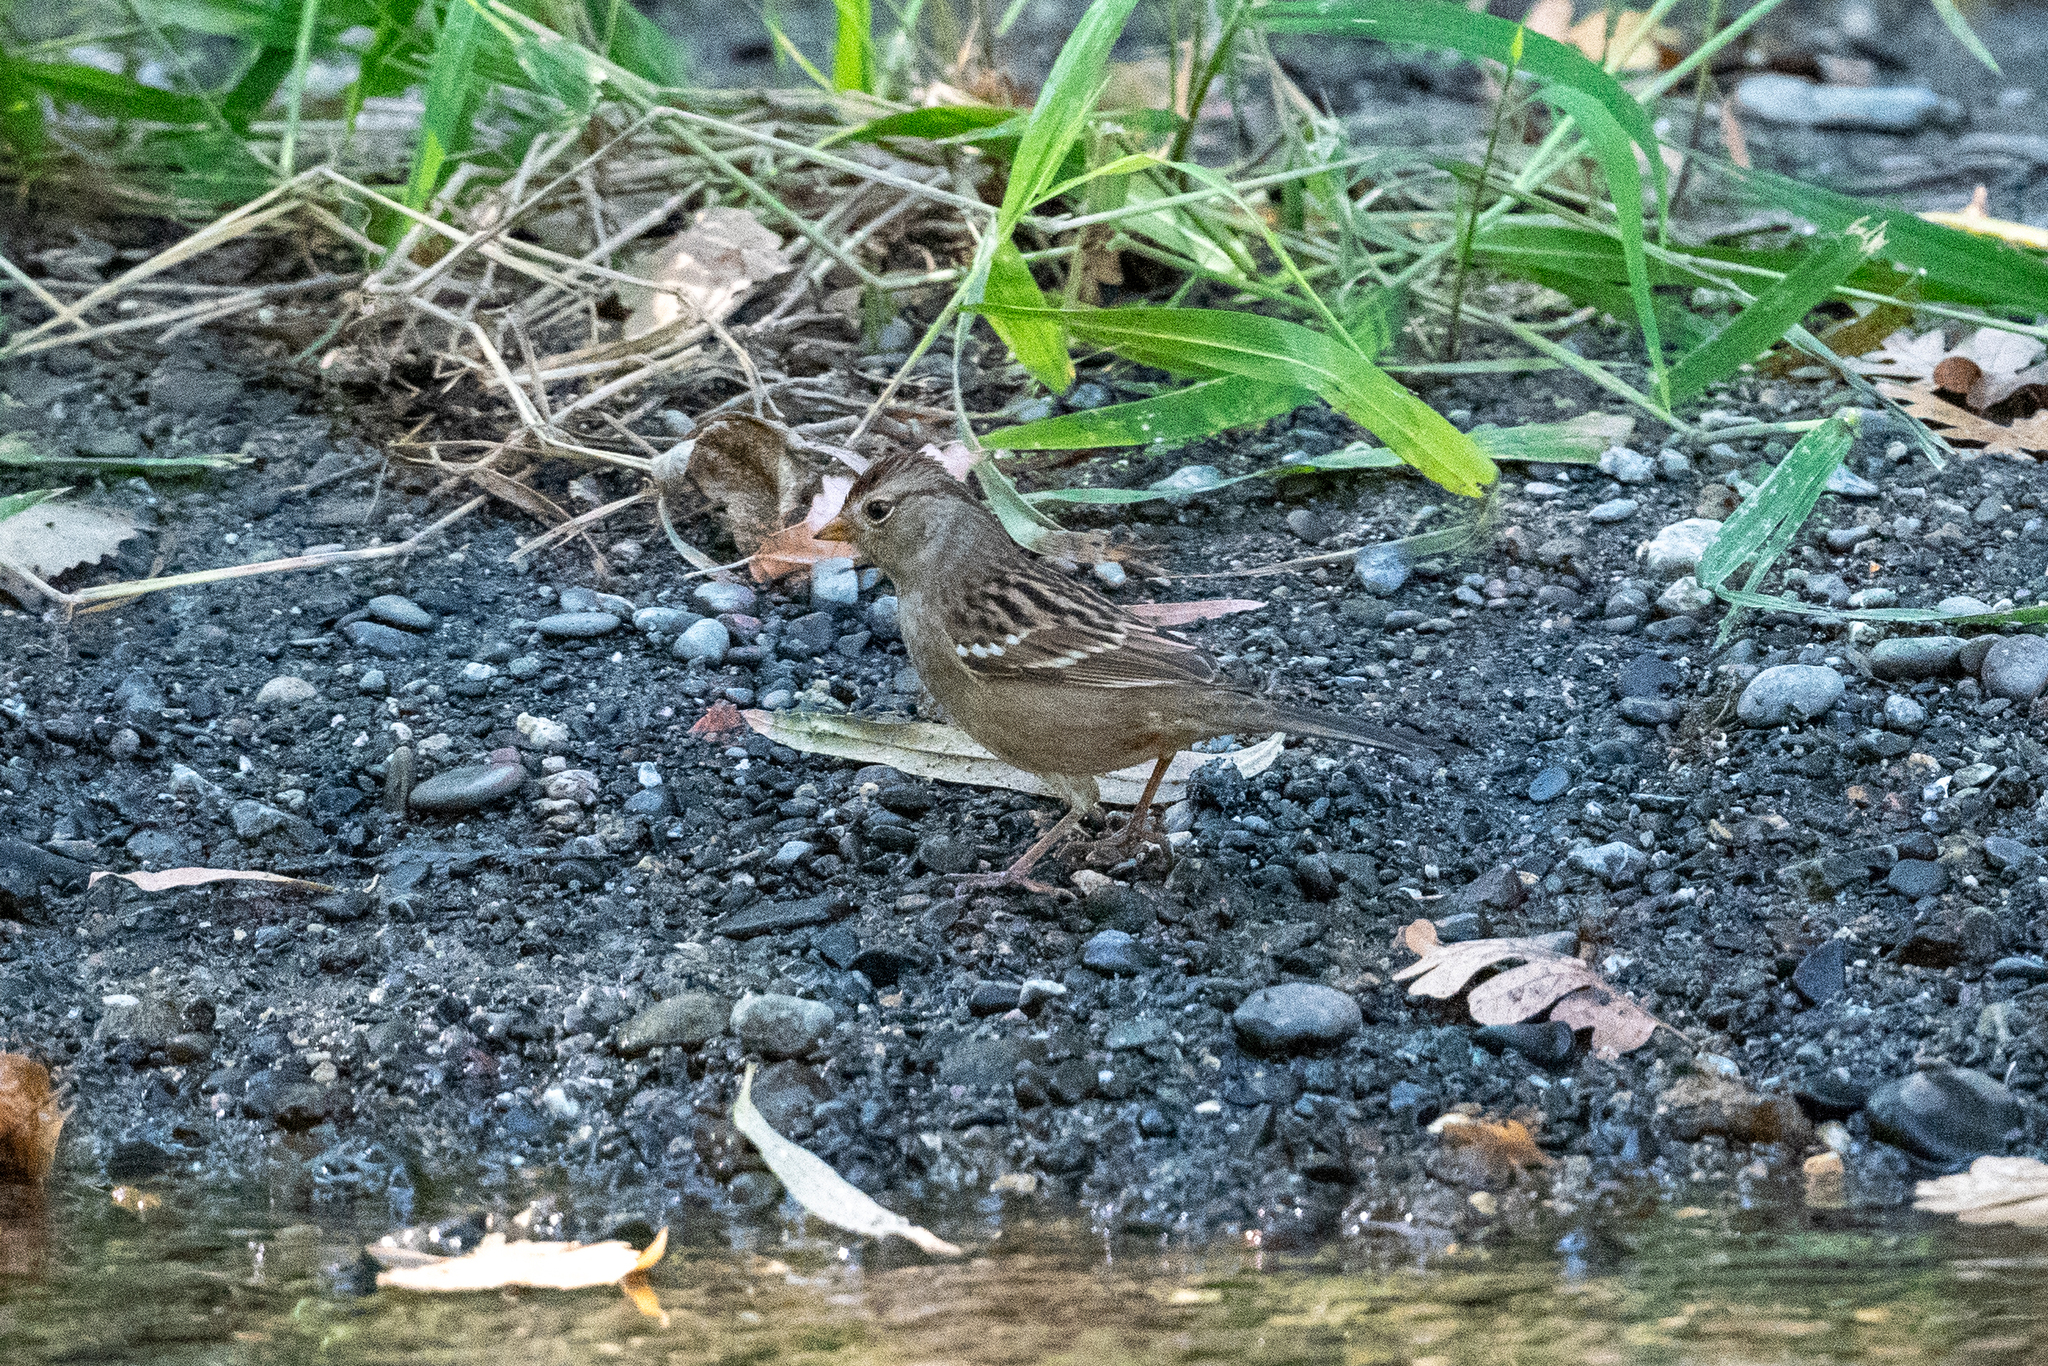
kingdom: Animalia
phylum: Chordata
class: Aves
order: Passeriformes
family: Passerellidae
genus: Zonotrichia
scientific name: Zonotrichia leucophrys
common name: White-crowned sparrow
